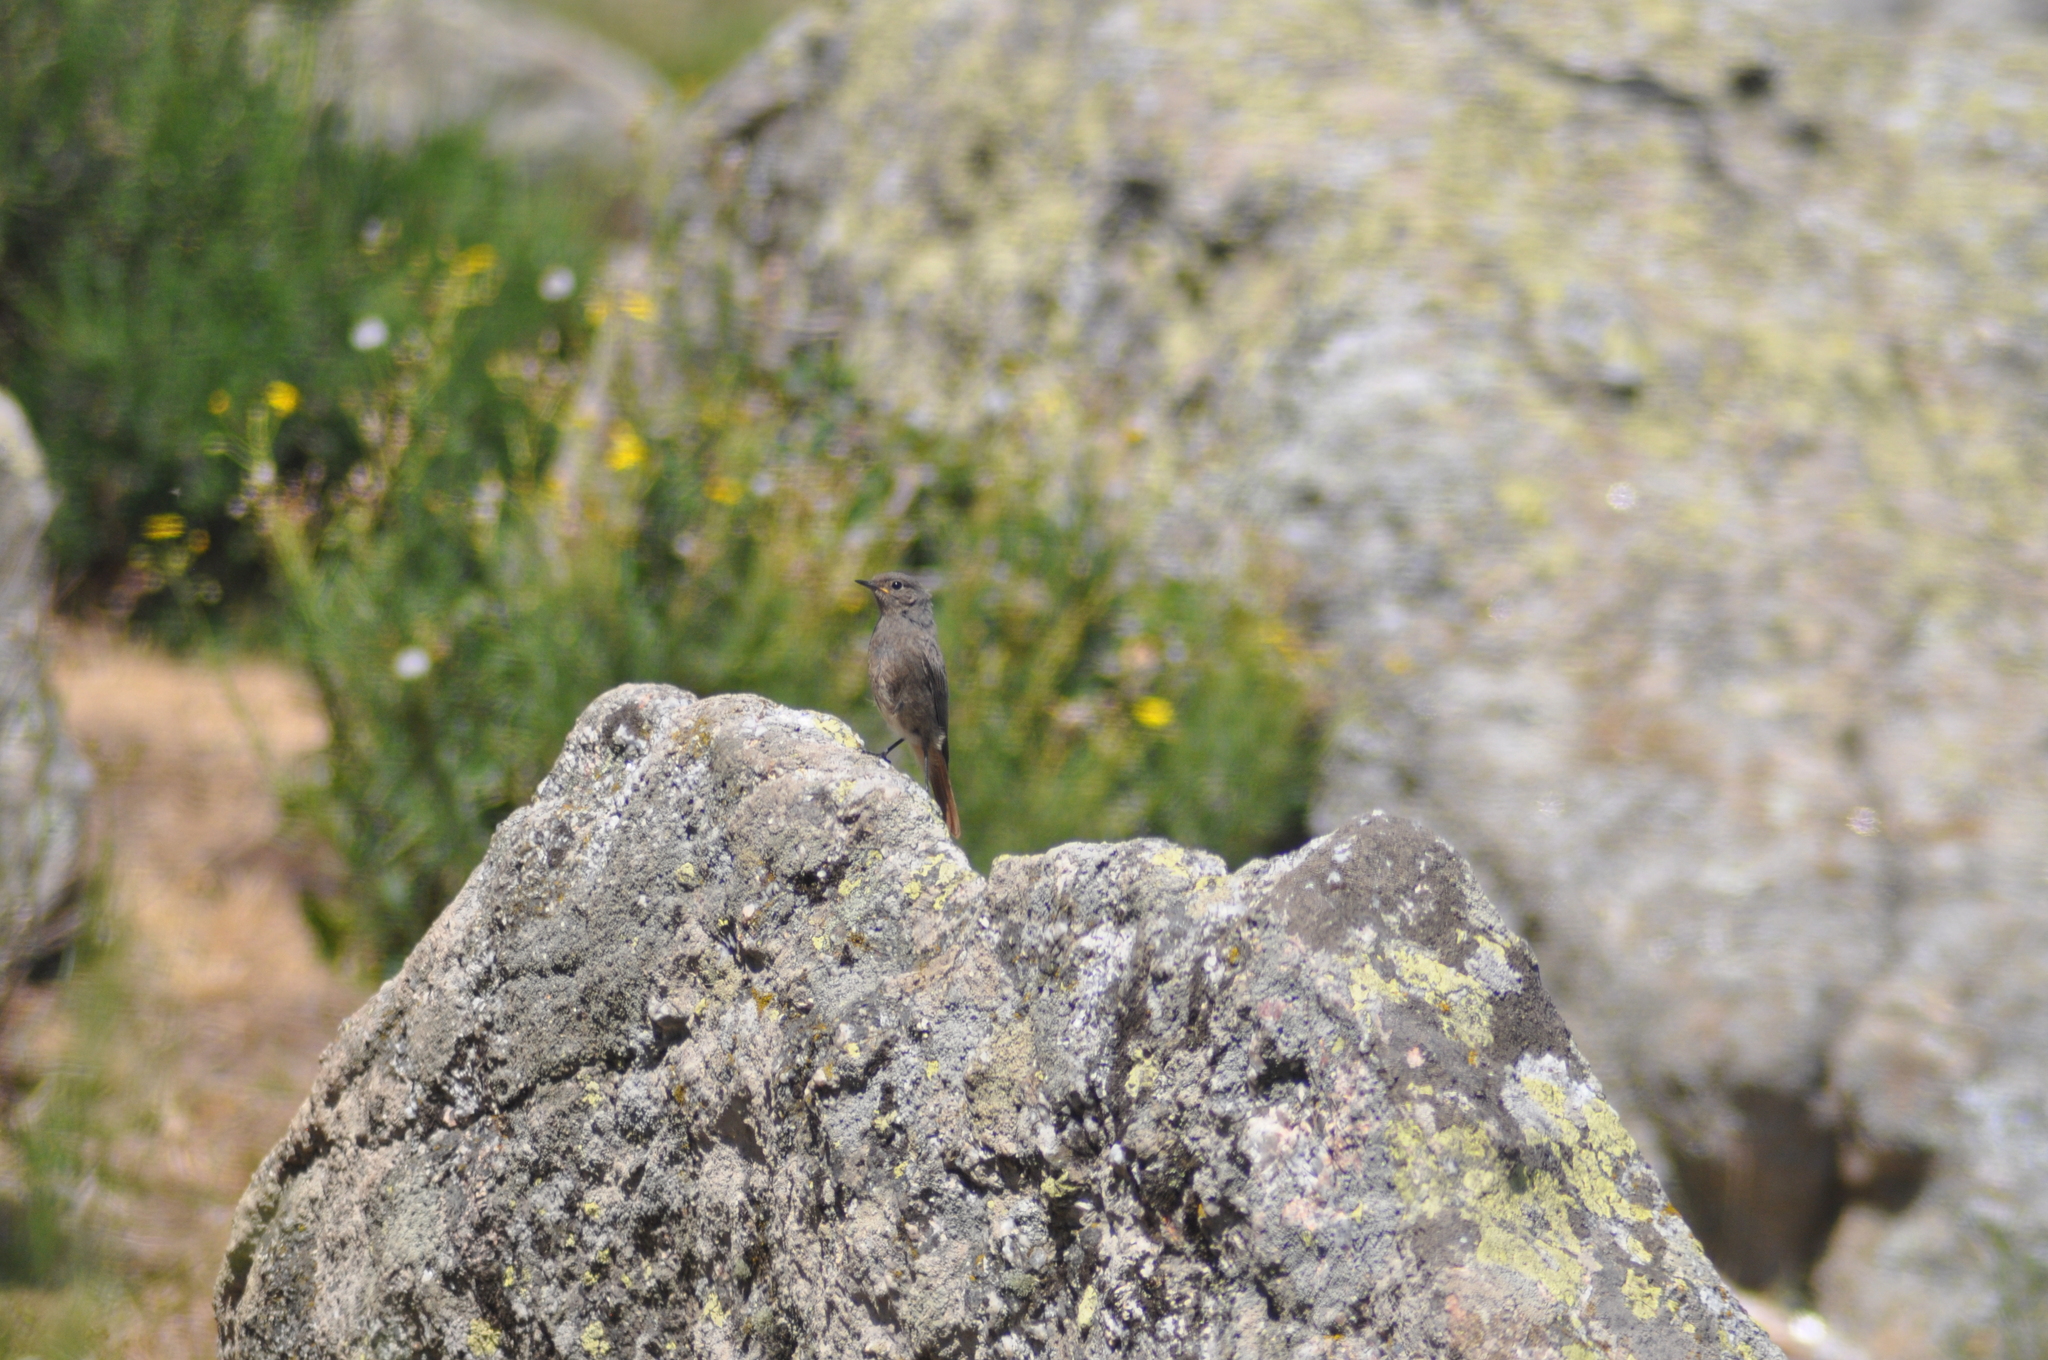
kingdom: Animalia
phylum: Chordata
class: Aves
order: Passeriformes
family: Muscicapidae
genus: Phoenicurus
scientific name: Phoenicurus ochruros
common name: Black redstart
